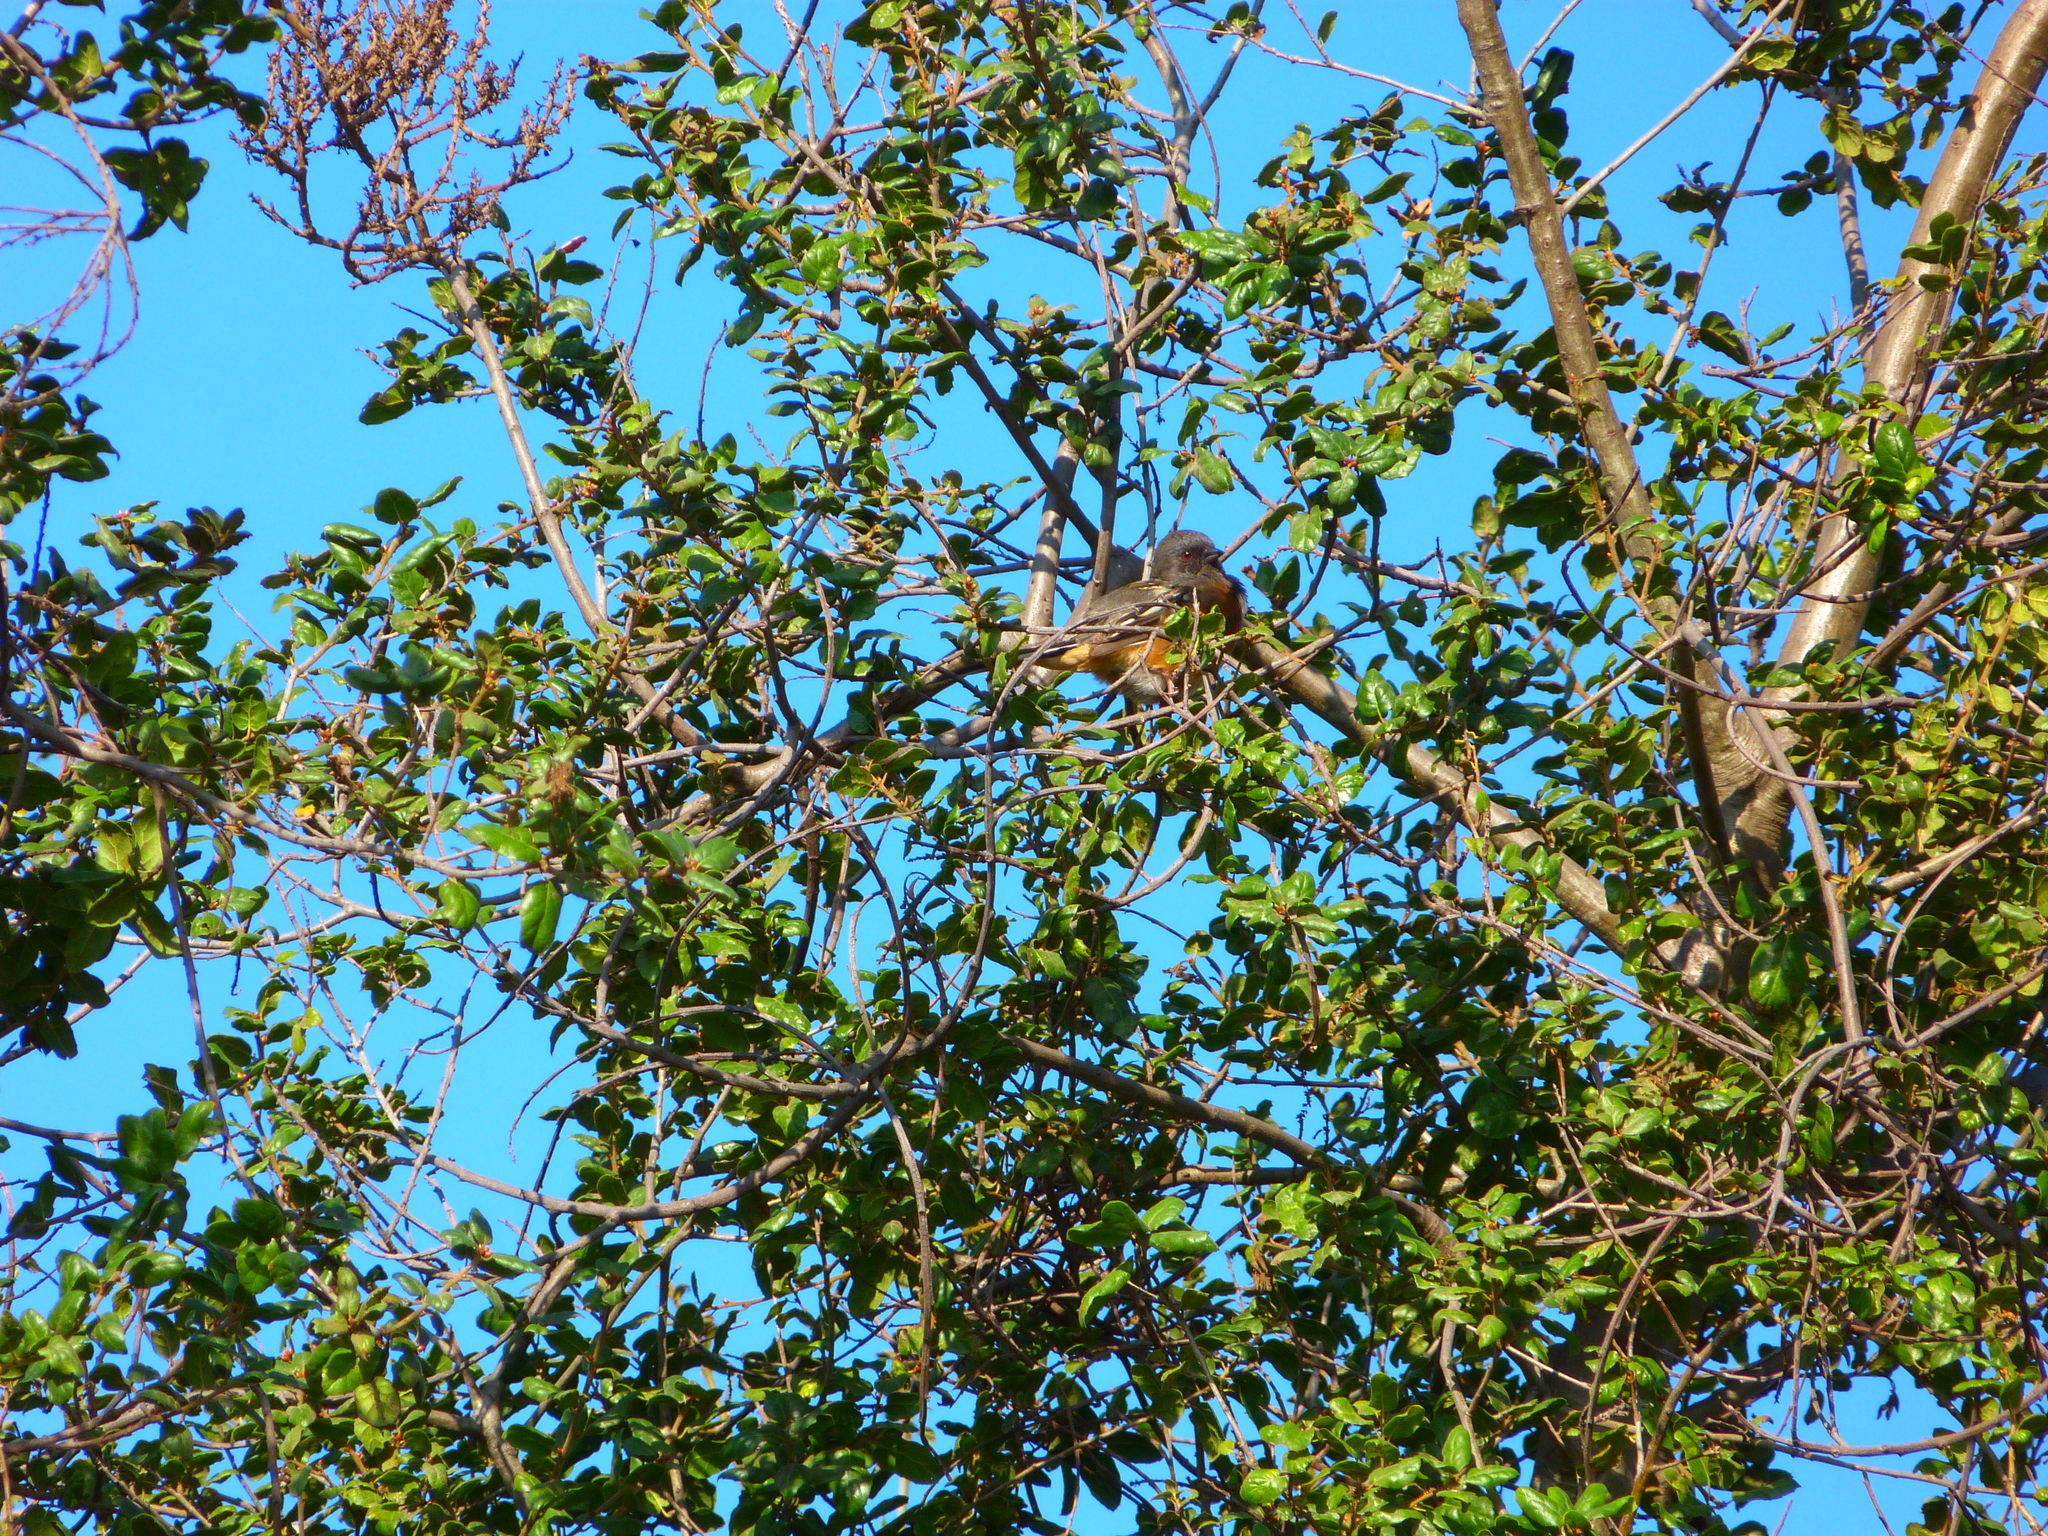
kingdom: Animalia
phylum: Chordata
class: Aves
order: Passeriformes
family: Passerellidae
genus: Pipilo
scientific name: Pipilo maculatus
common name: Spotted towhee
